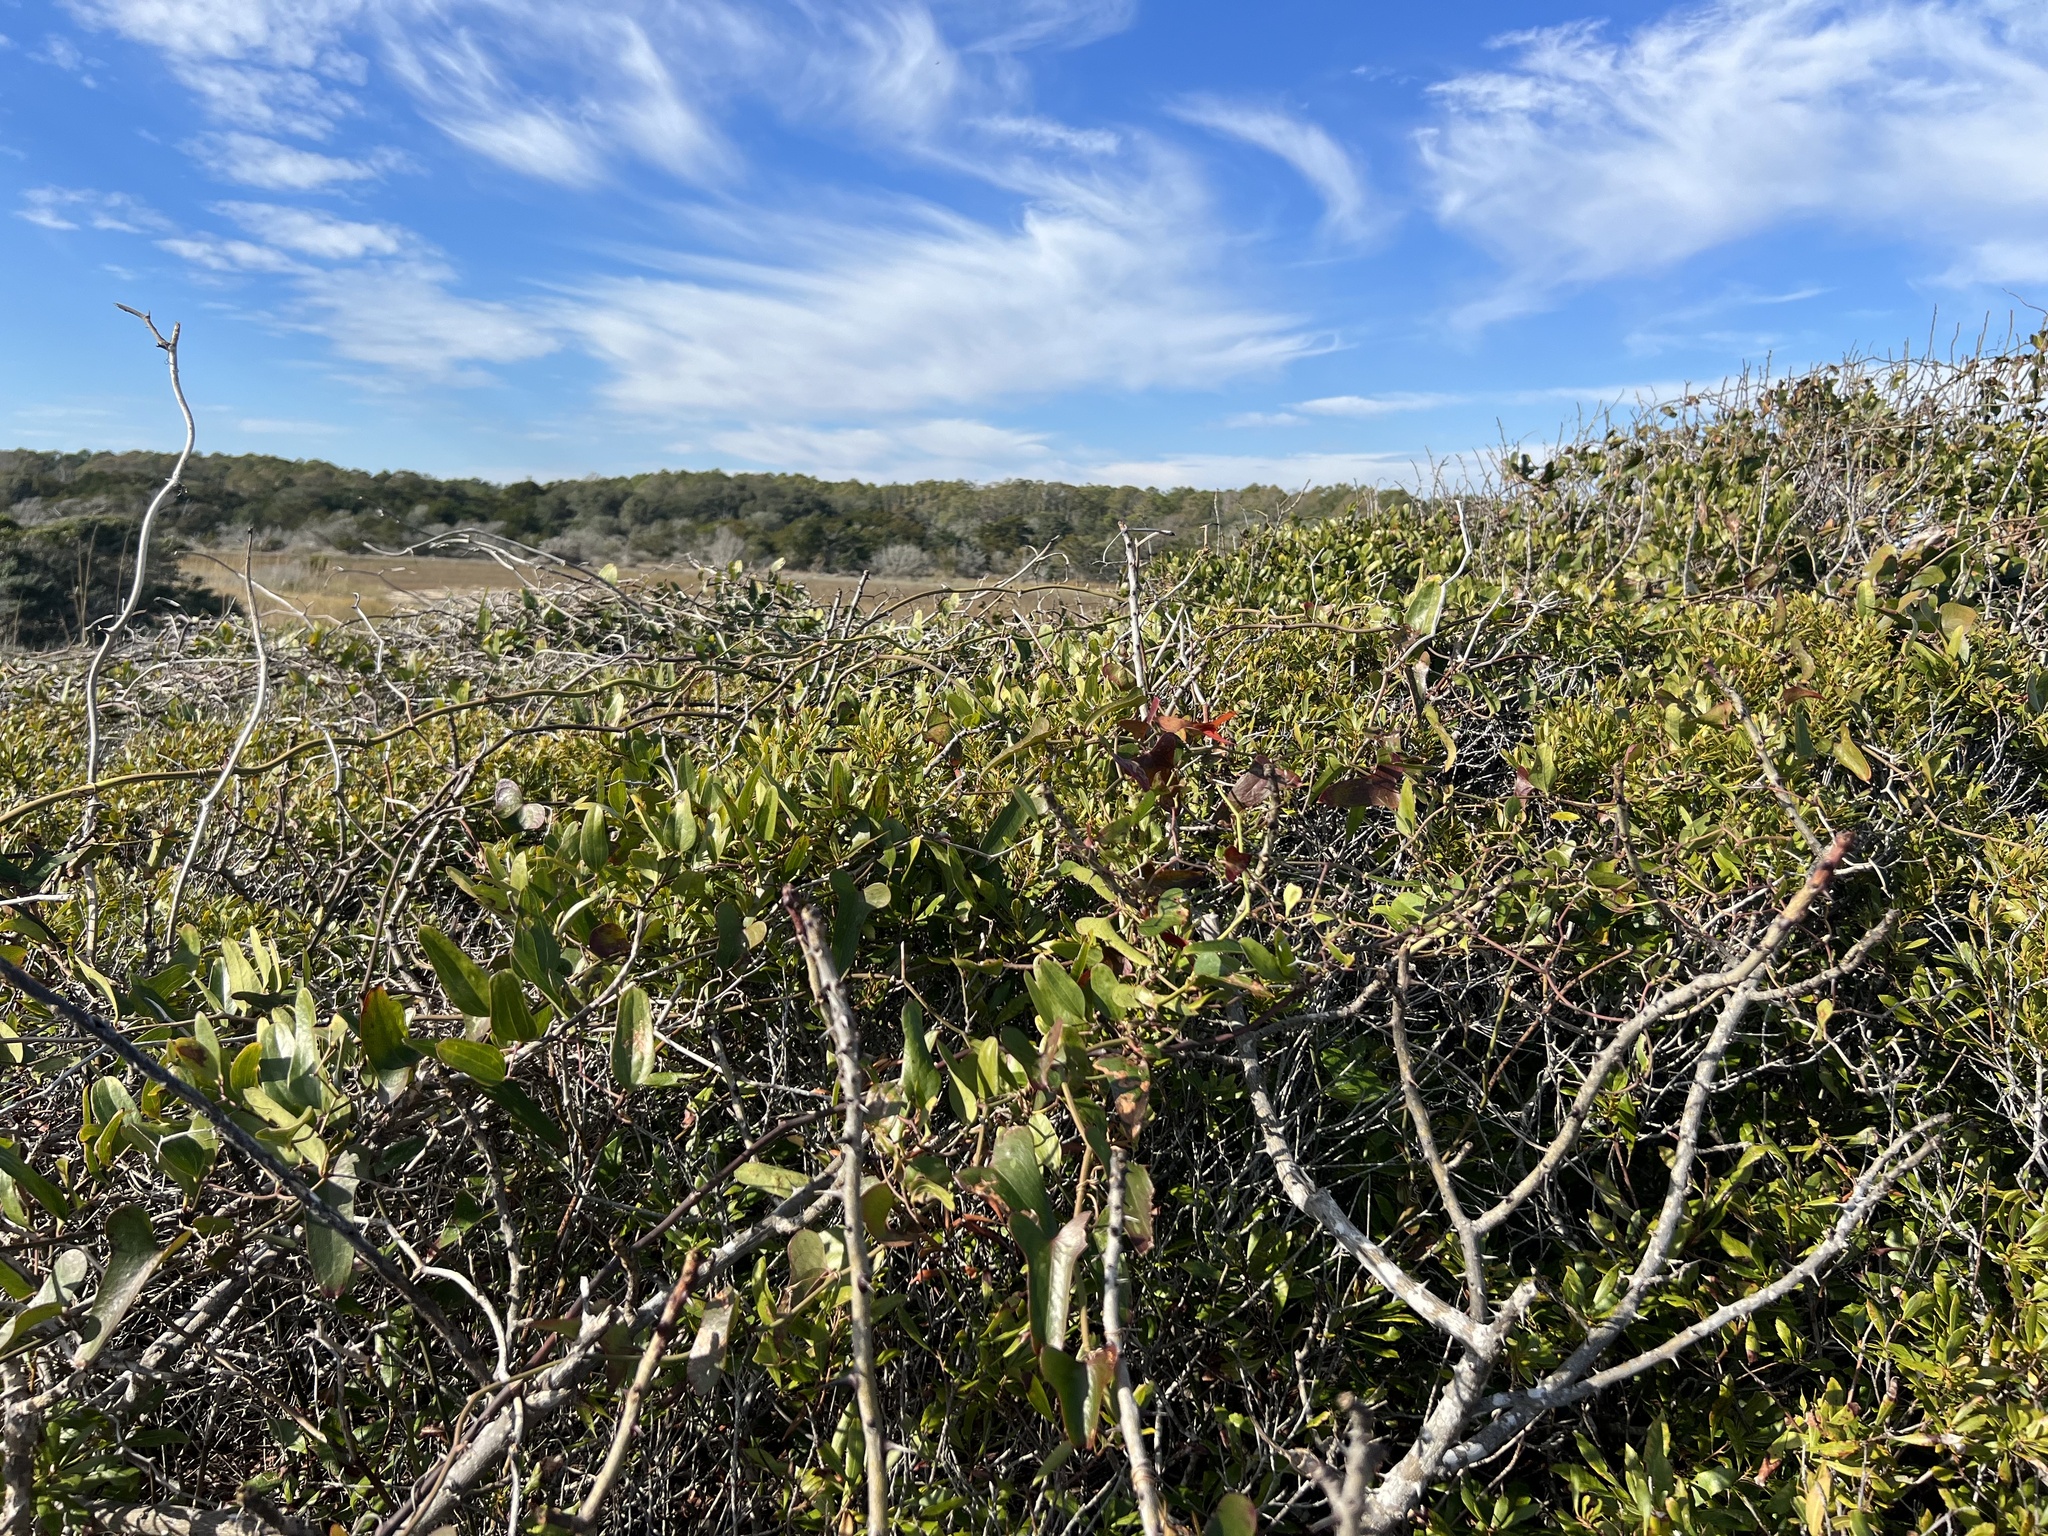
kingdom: Plantae
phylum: Tracheophyta
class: Magnoliopsida
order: Fagales
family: Myricaceae
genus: Morella
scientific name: Morella cerifera
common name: Wax myrtle
